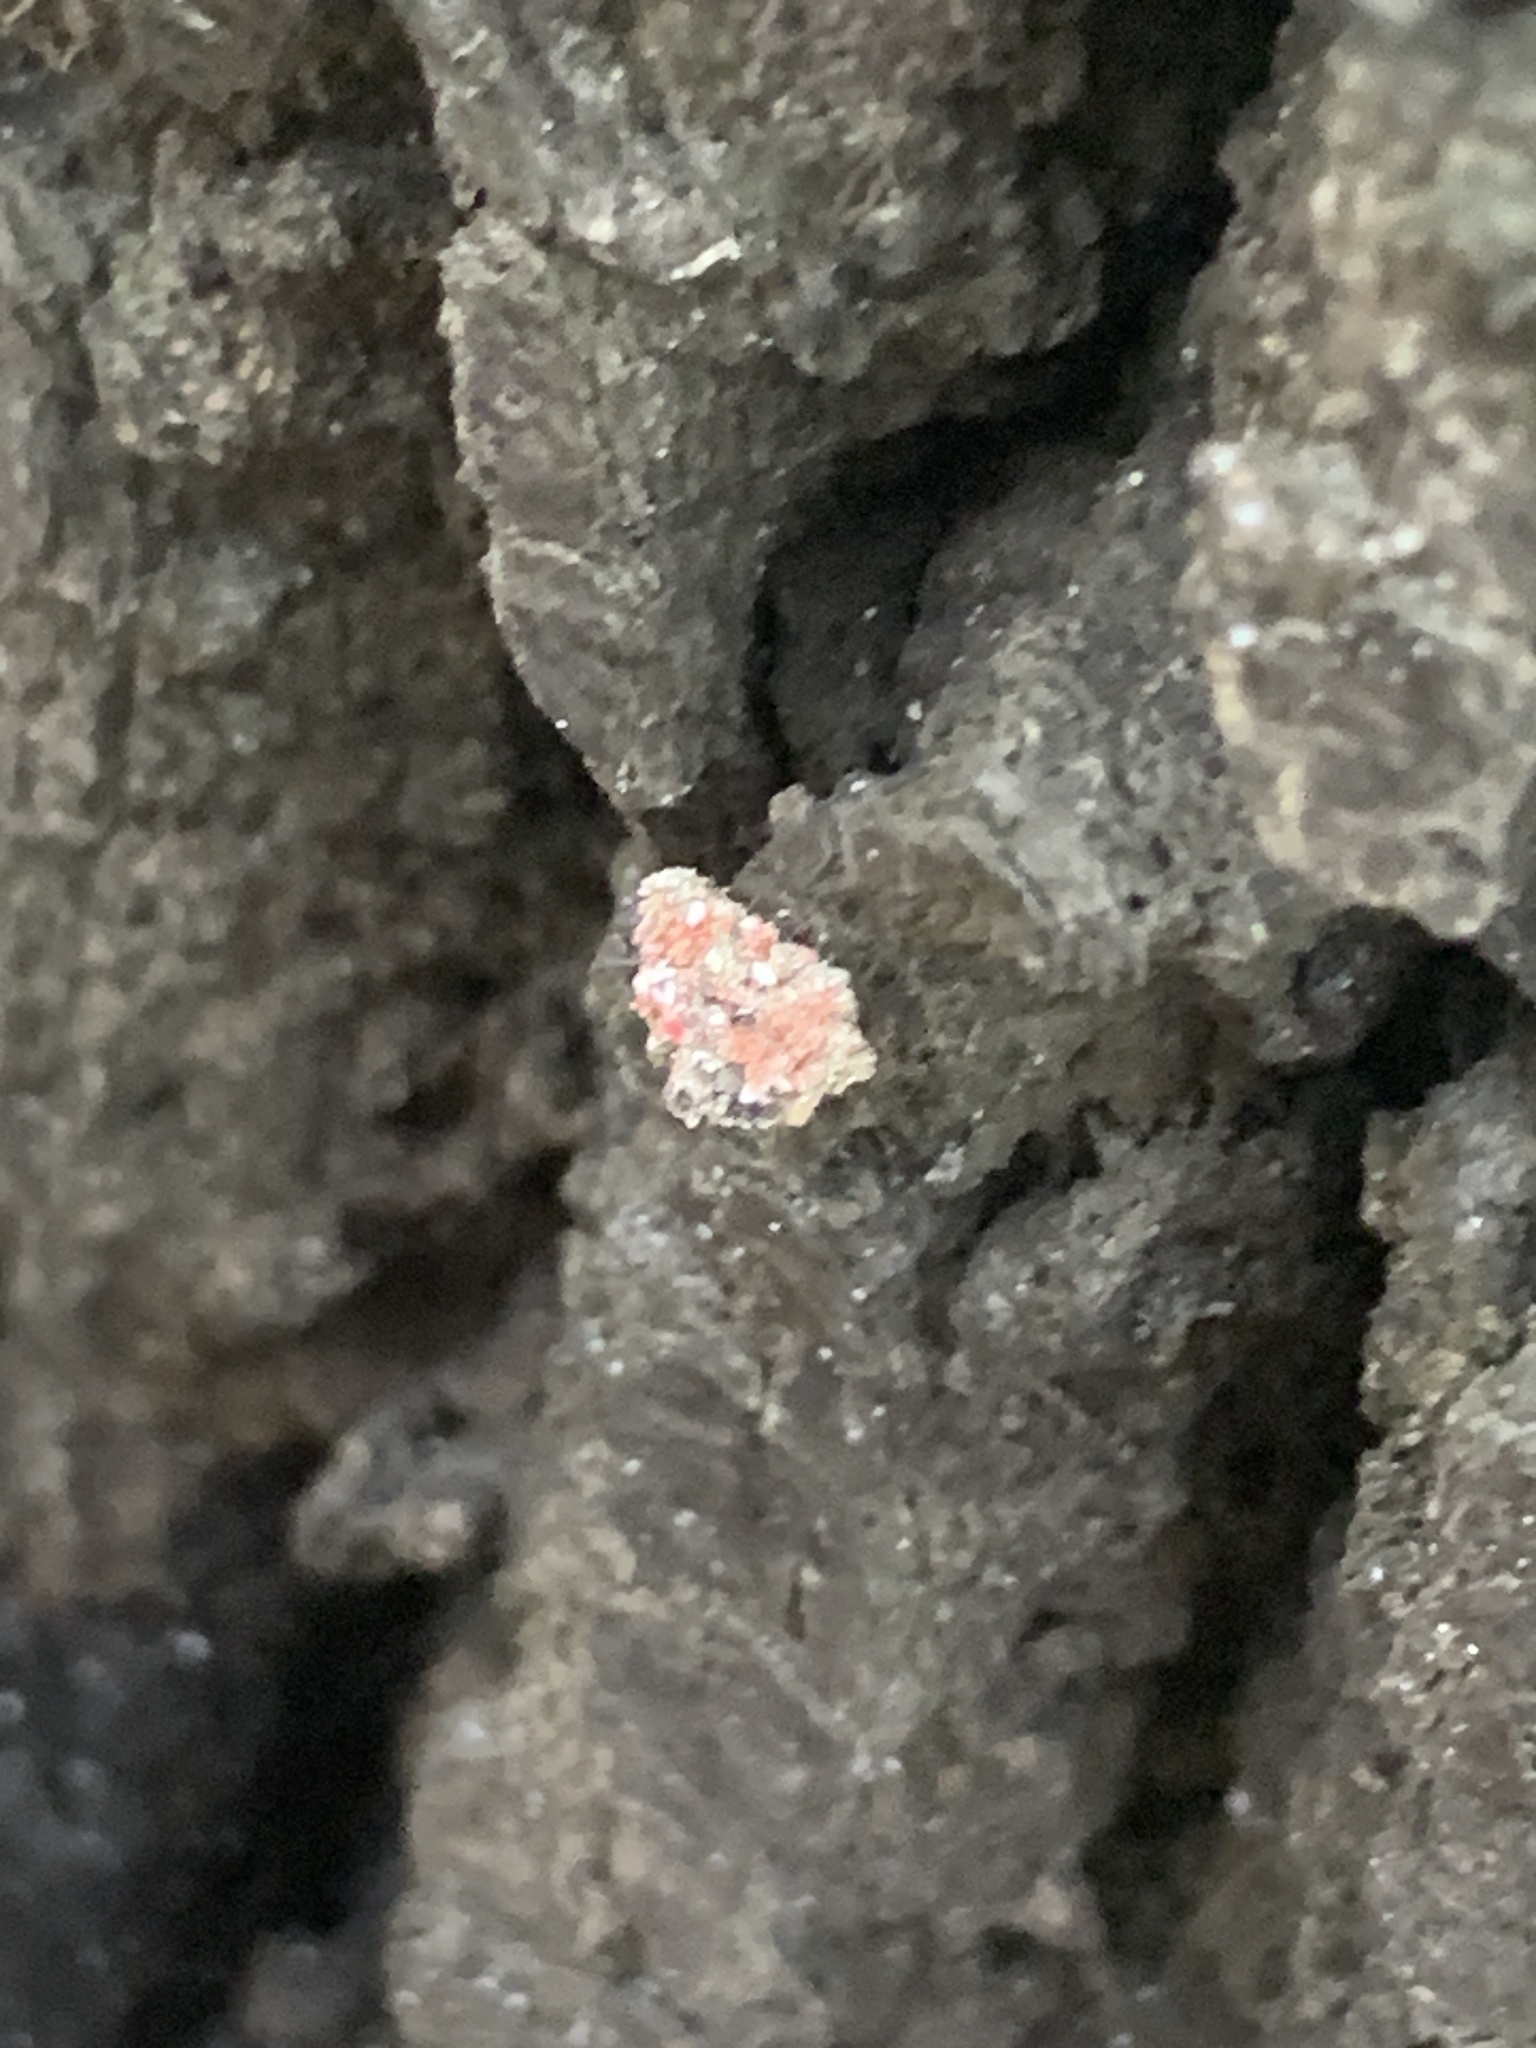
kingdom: Animalia
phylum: Arthropoda
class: Insecta
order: Neuroptera
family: Chrysopidae
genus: Leucochrysa
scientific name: Leucochrysa pavida
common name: Lichen-carrying green lacewing
